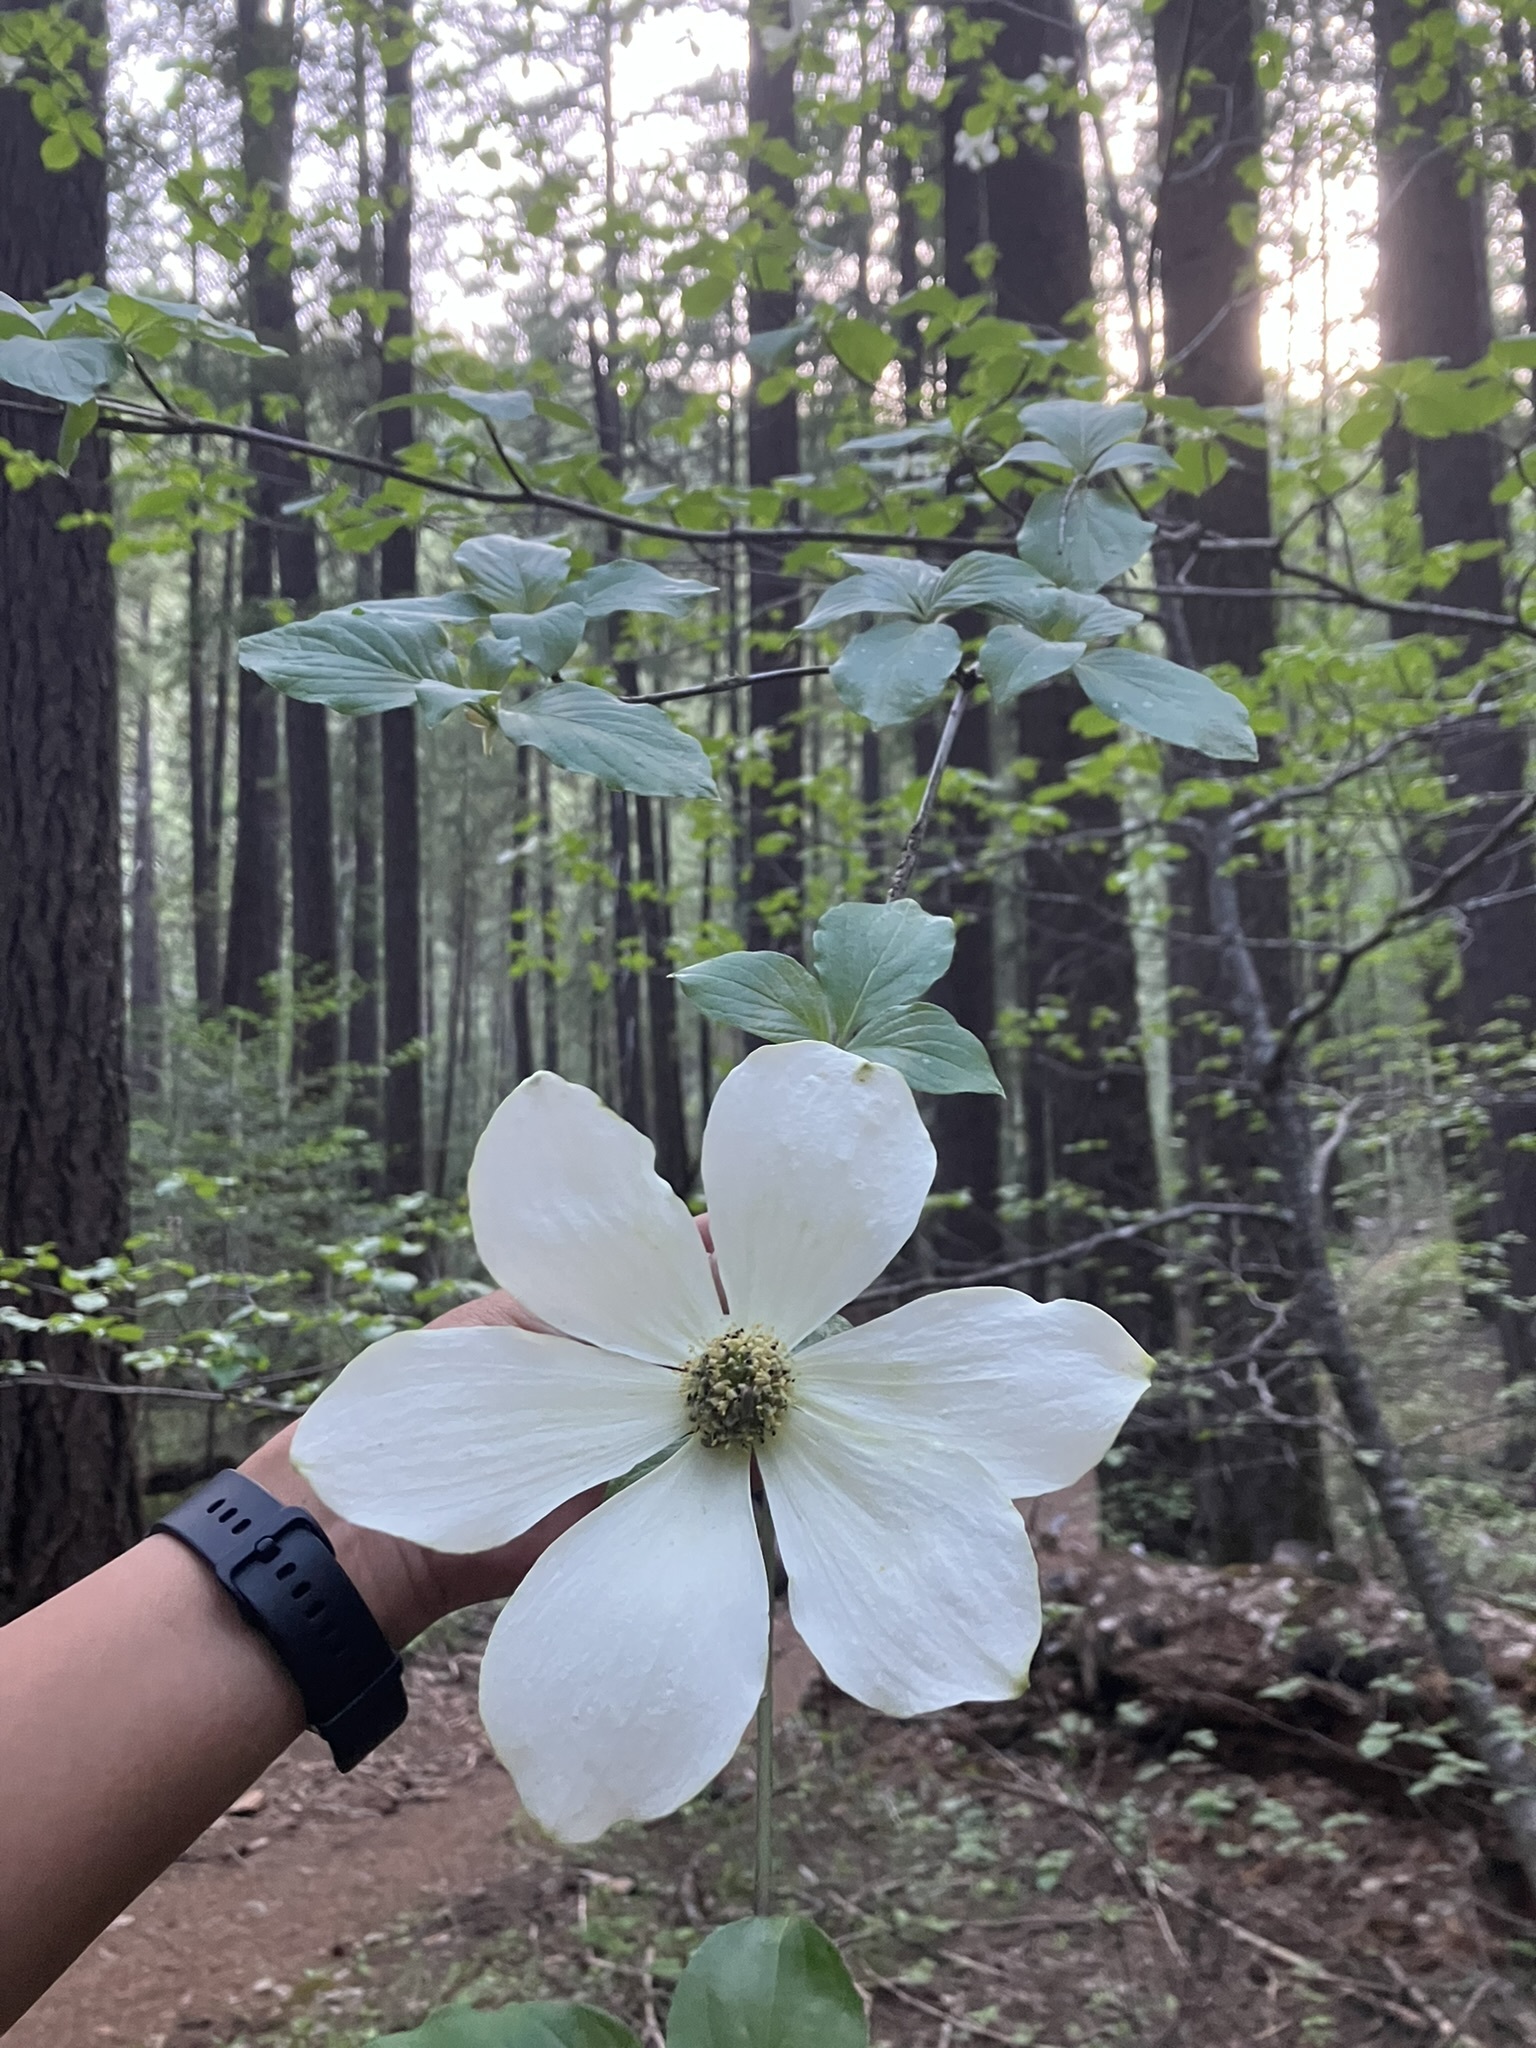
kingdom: Plantae
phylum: Tracheophyta
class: Magnoliopsida
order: Cornales
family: Cornaceae
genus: Cornus
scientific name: Cornus nuttallii
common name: Pacific dogwood
